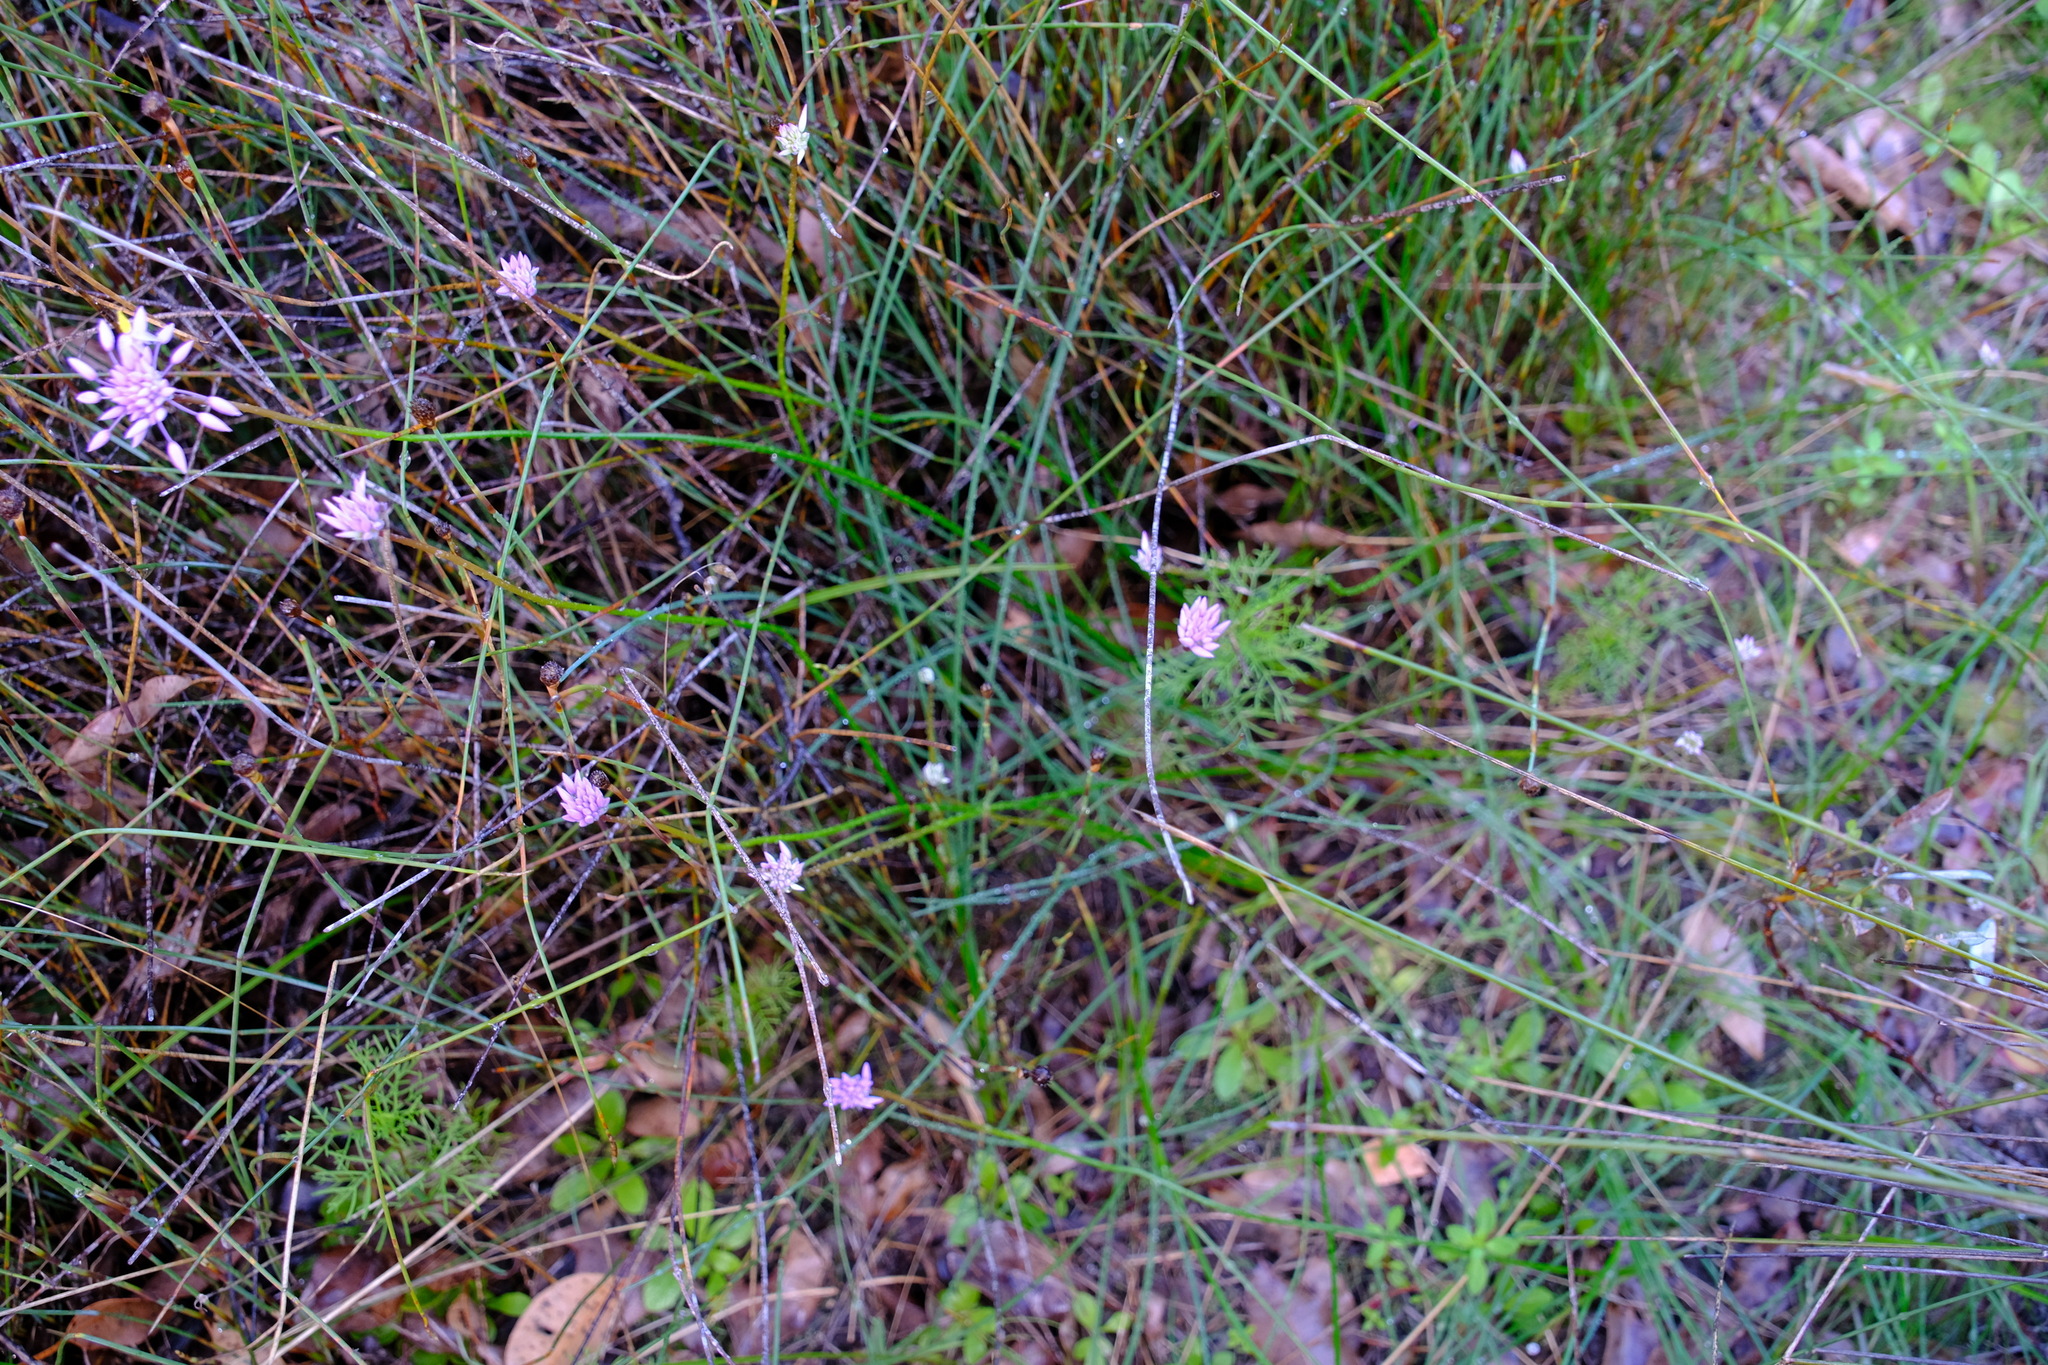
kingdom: Plantae
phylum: Tracheophyta
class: Liliopsida
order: Asparagales
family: Asparagaceae
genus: Sowerbaea
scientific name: Sowerbaea laxiflora
